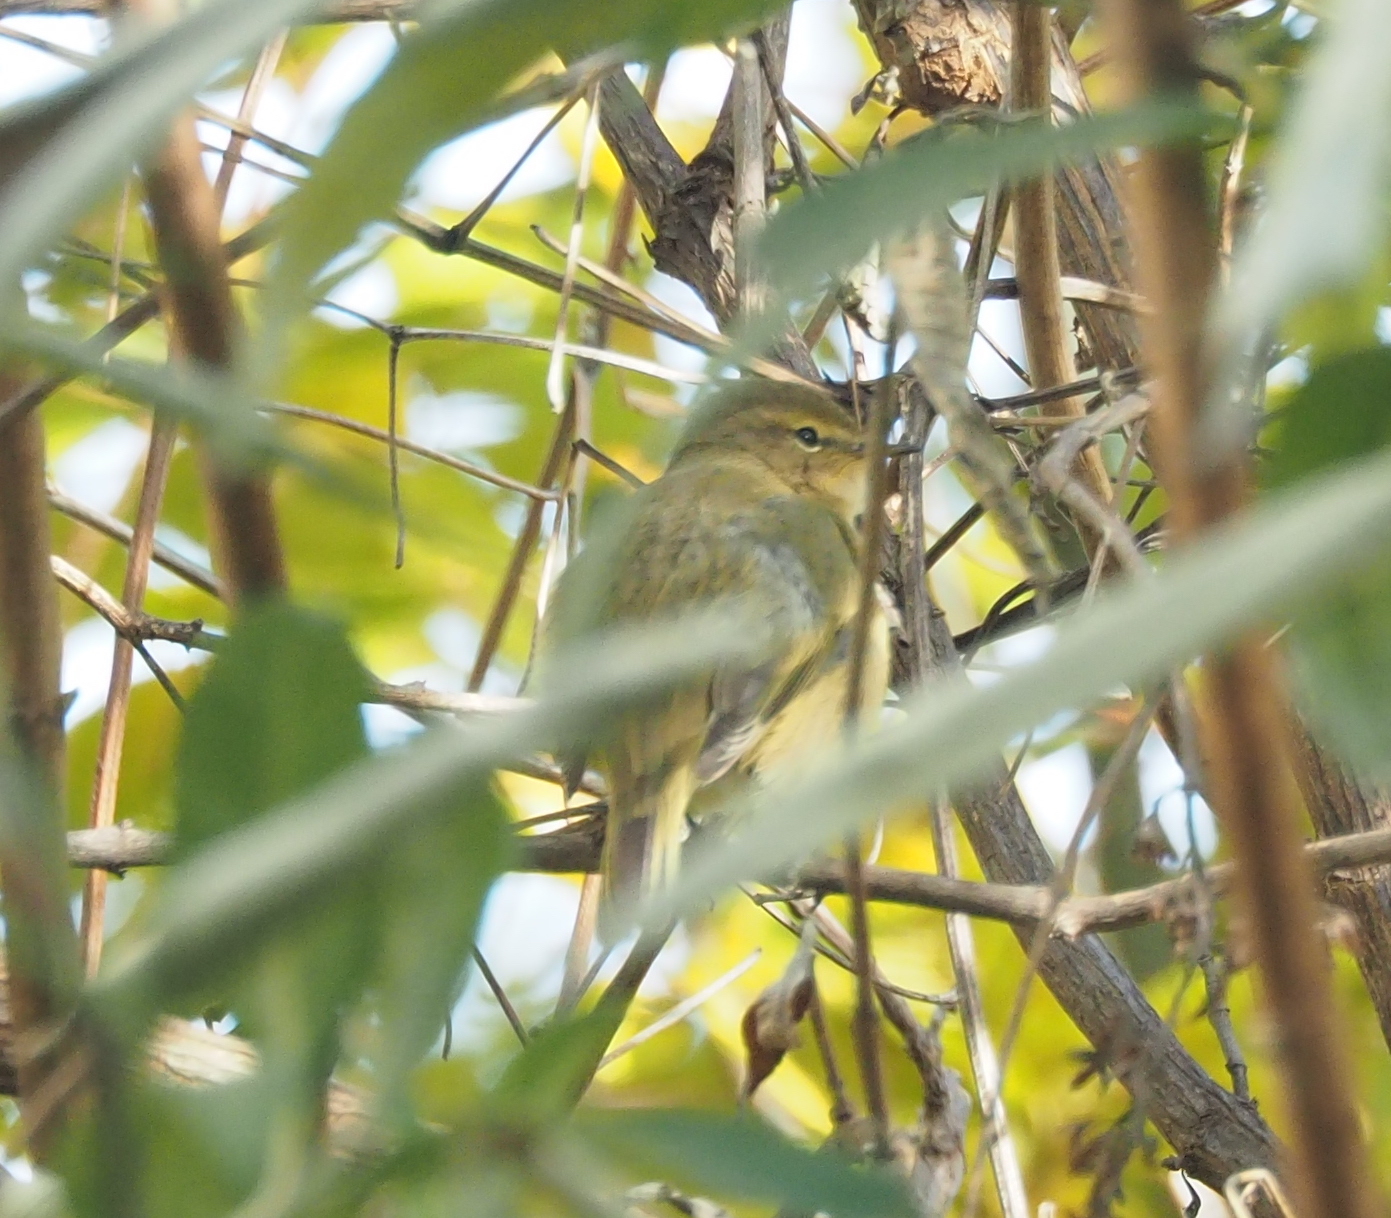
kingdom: Animalia
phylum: Chordata
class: Aves
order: Passeriformes
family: Phylloscopidae
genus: Phylloscopus
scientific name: Phylloscopus collybita
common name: Common chiffchaff
